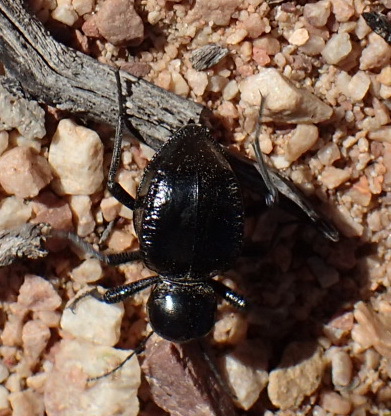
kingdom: Animalia
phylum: Arthropoda
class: Insecta
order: Coleoptera
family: Tenebrionidae
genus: Moluris
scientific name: Moluris gibba
